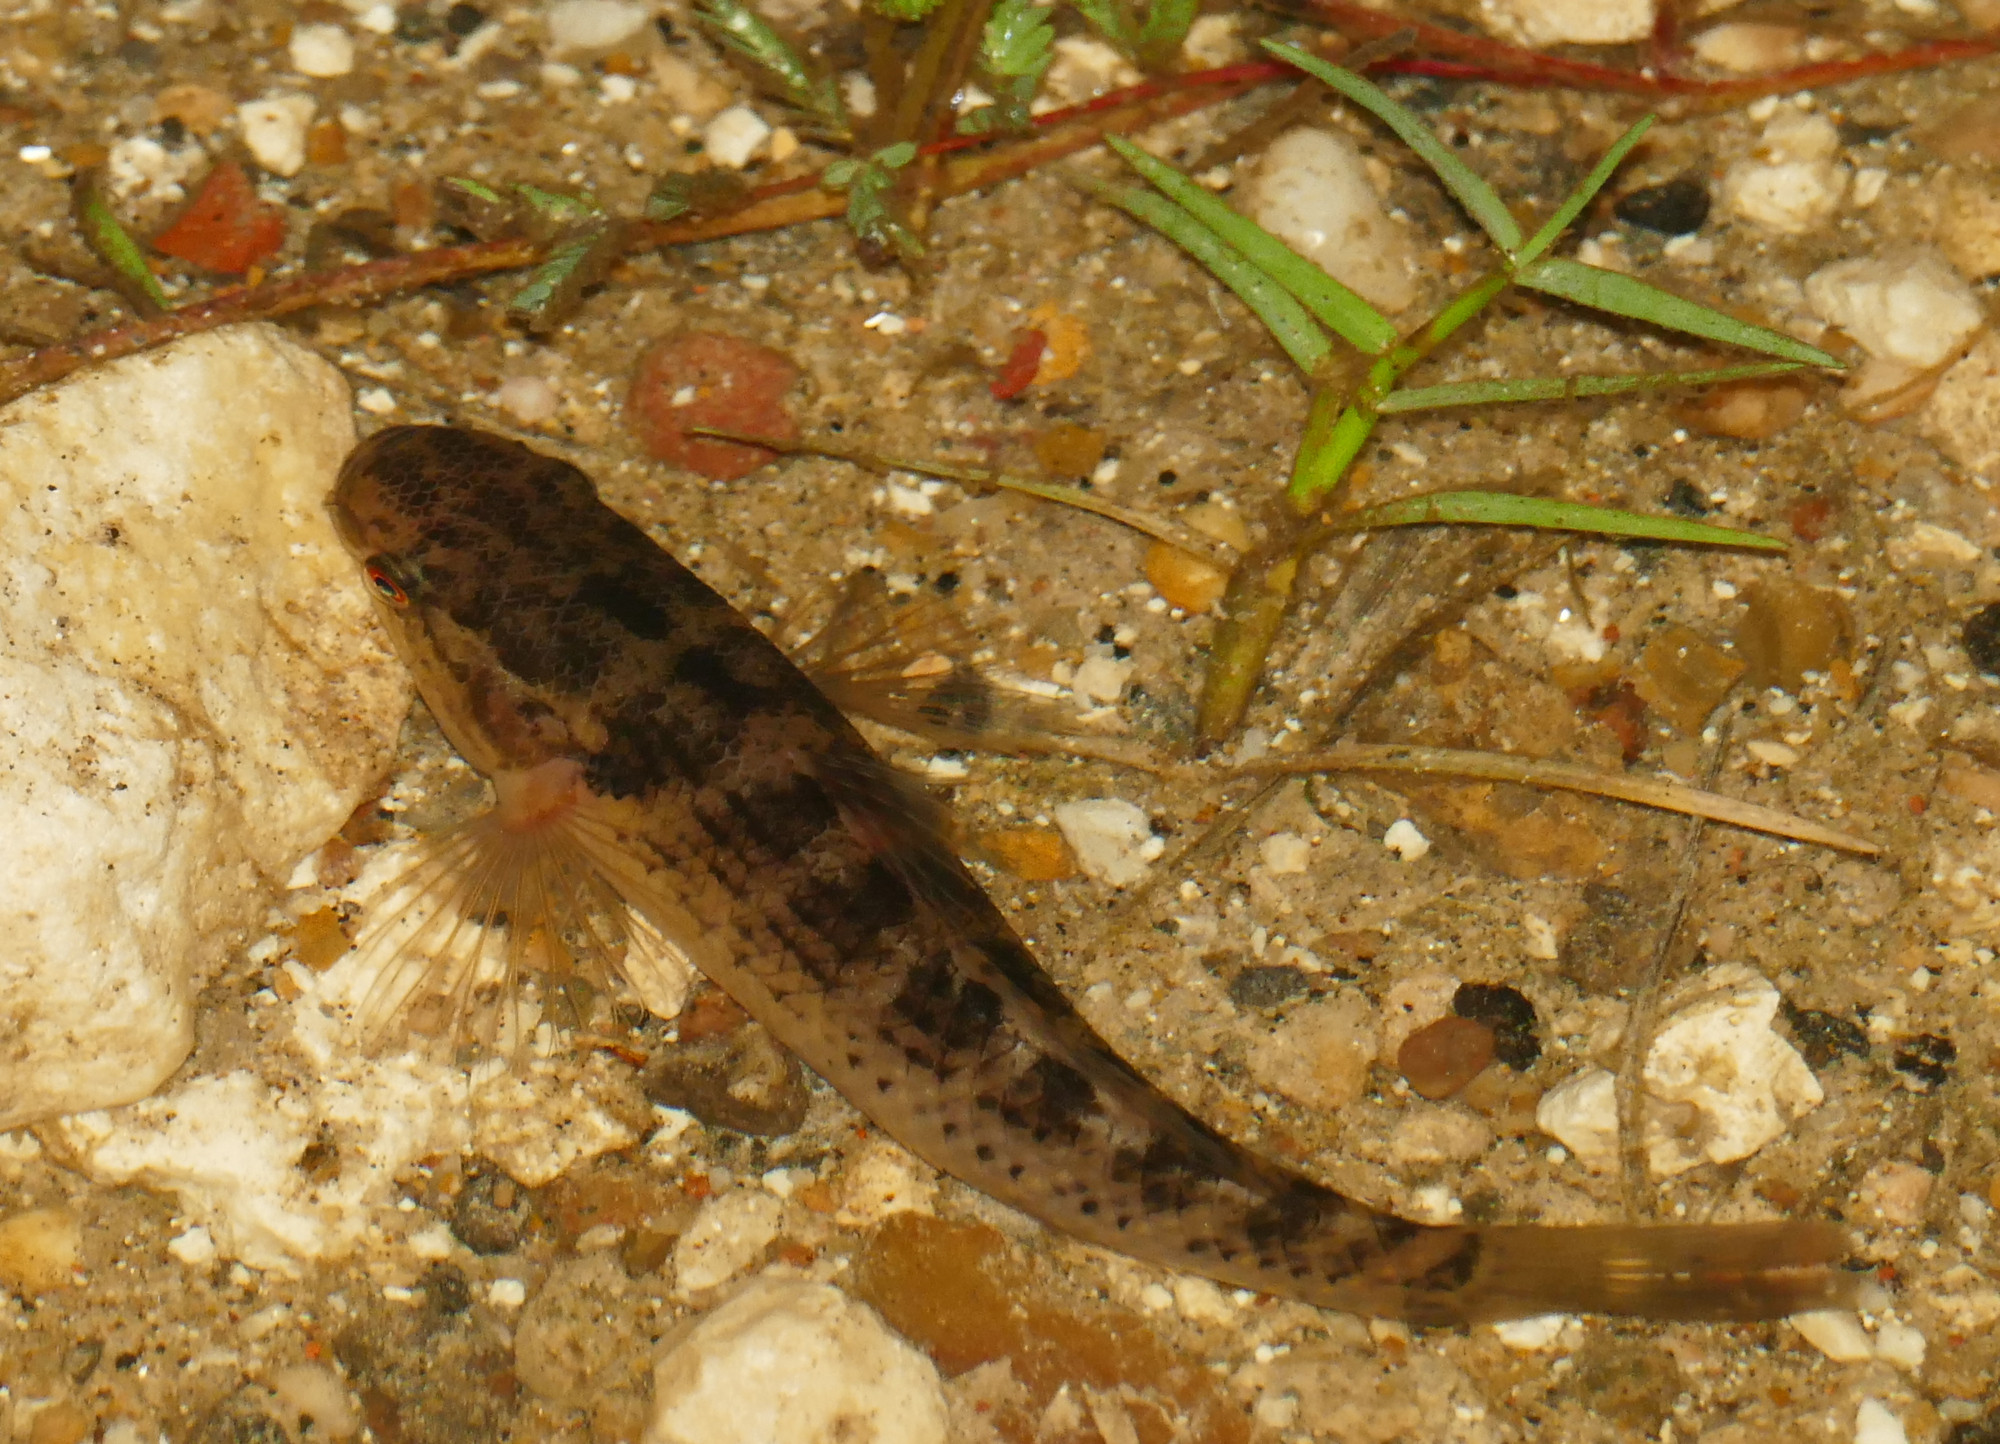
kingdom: Animalia
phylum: Chordata
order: Perciformes
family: Eleotridae
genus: Dormitator
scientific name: Dormitator maculatus
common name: Fat sleeper
